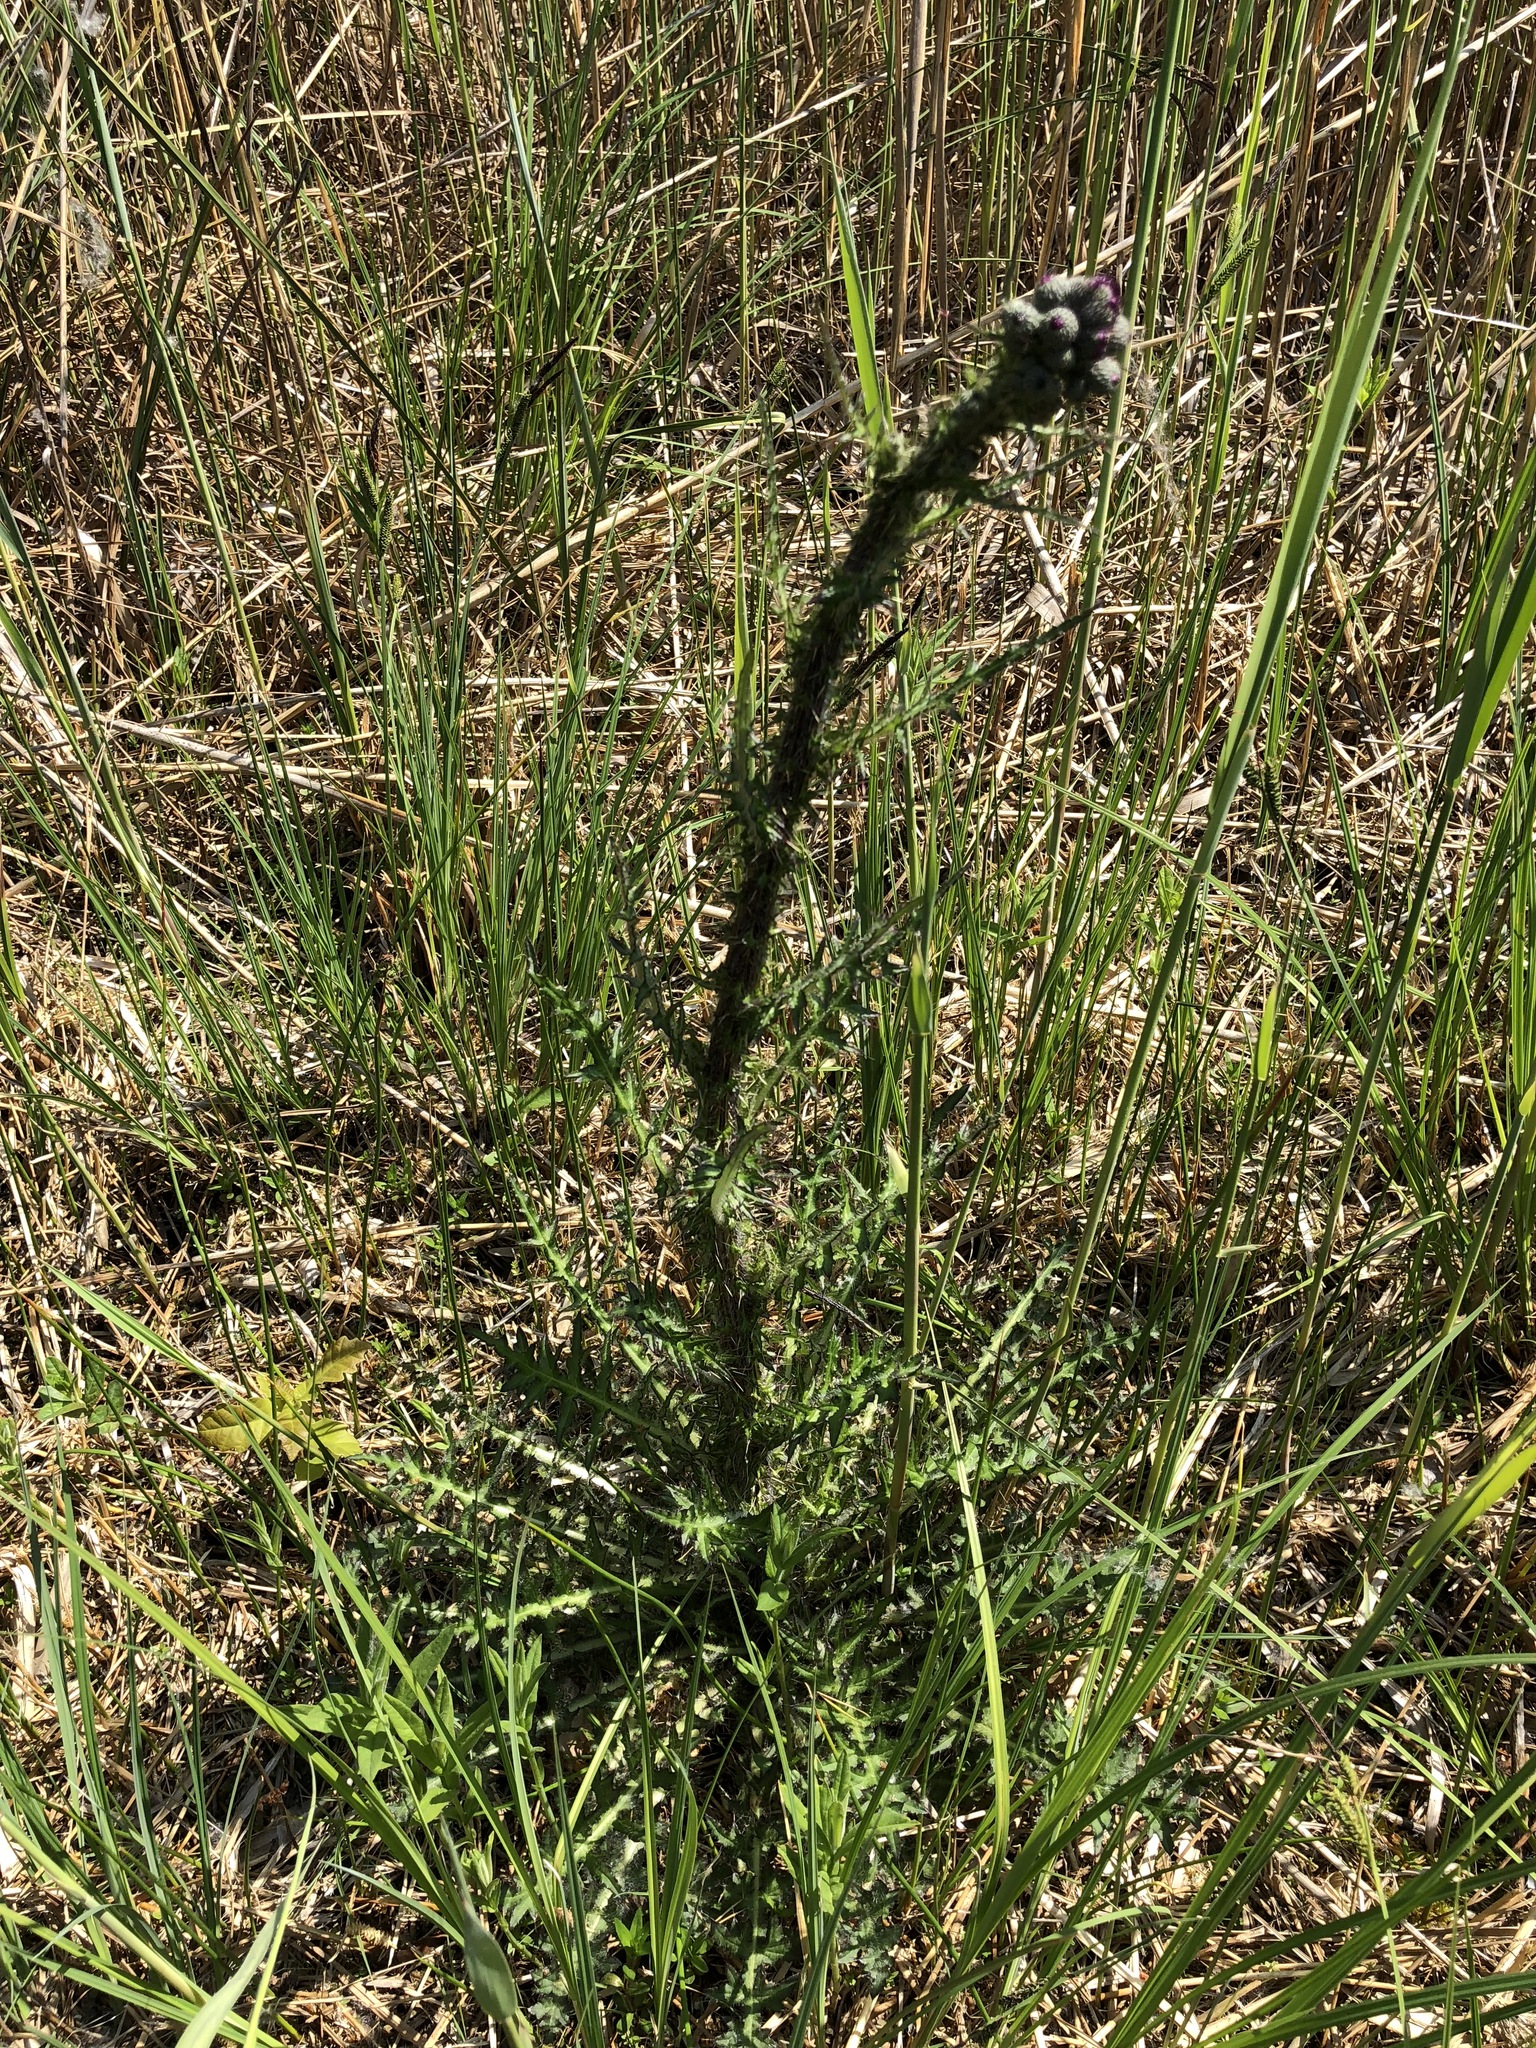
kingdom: Plantae
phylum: Tracheophyta
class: Magnoliopsida
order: Asterales
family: Asteraceae
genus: Cirsium
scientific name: Cirsium palustre
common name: Marsh thistle
